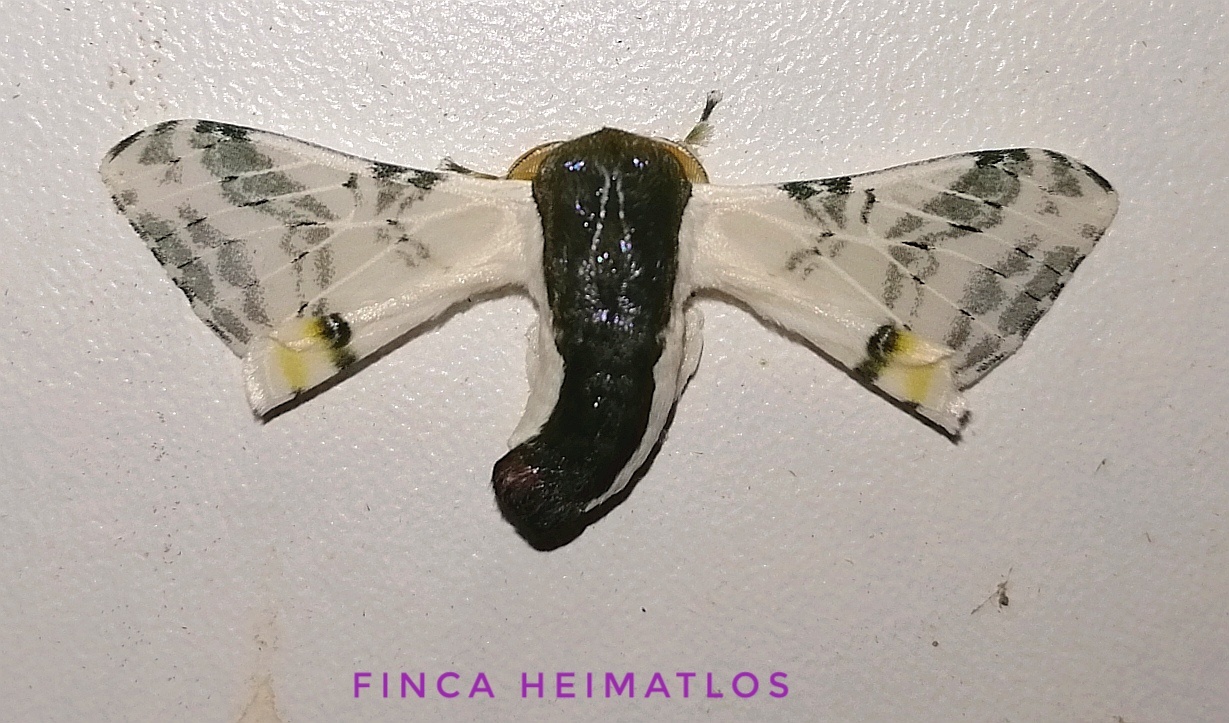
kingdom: Animalia
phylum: Arthropoda
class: Insecta
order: Lepidoptera
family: Bombycidae
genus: Colla
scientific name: Colla rhodope
